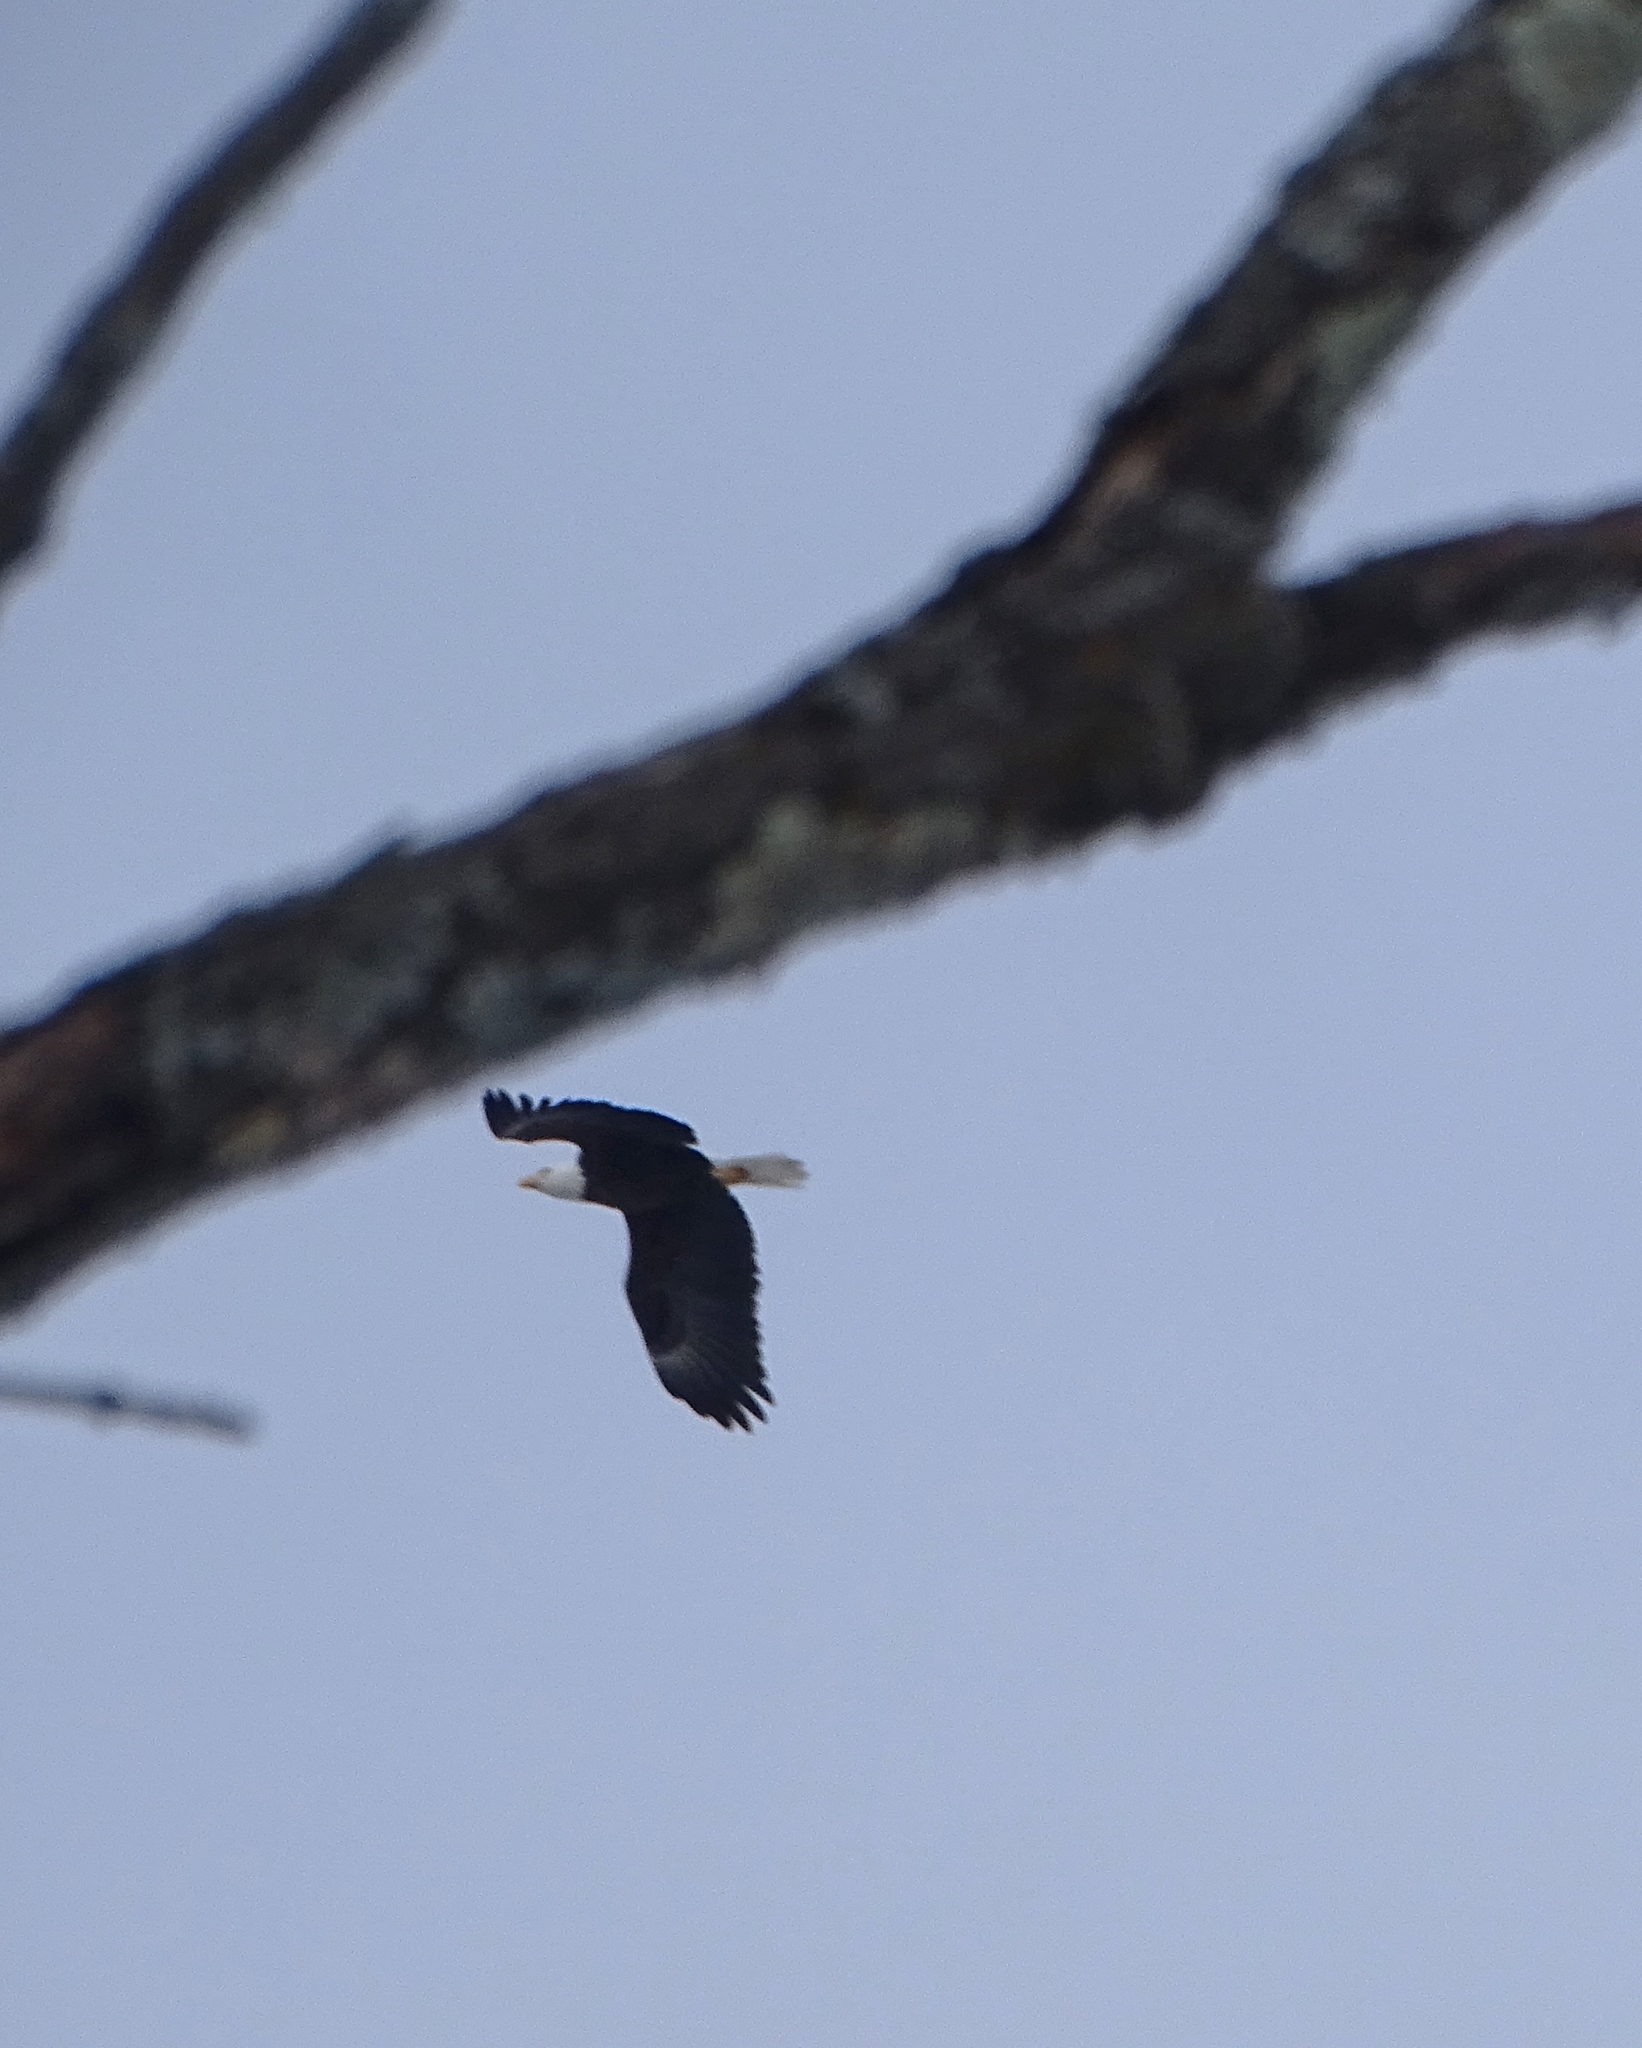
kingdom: Animalia
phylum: Chordata
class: Aves
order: Accipitriformes
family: Accipitridae
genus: Haliaeetus
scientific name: Haliaeetus leucocephalus
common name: Bald eagle
